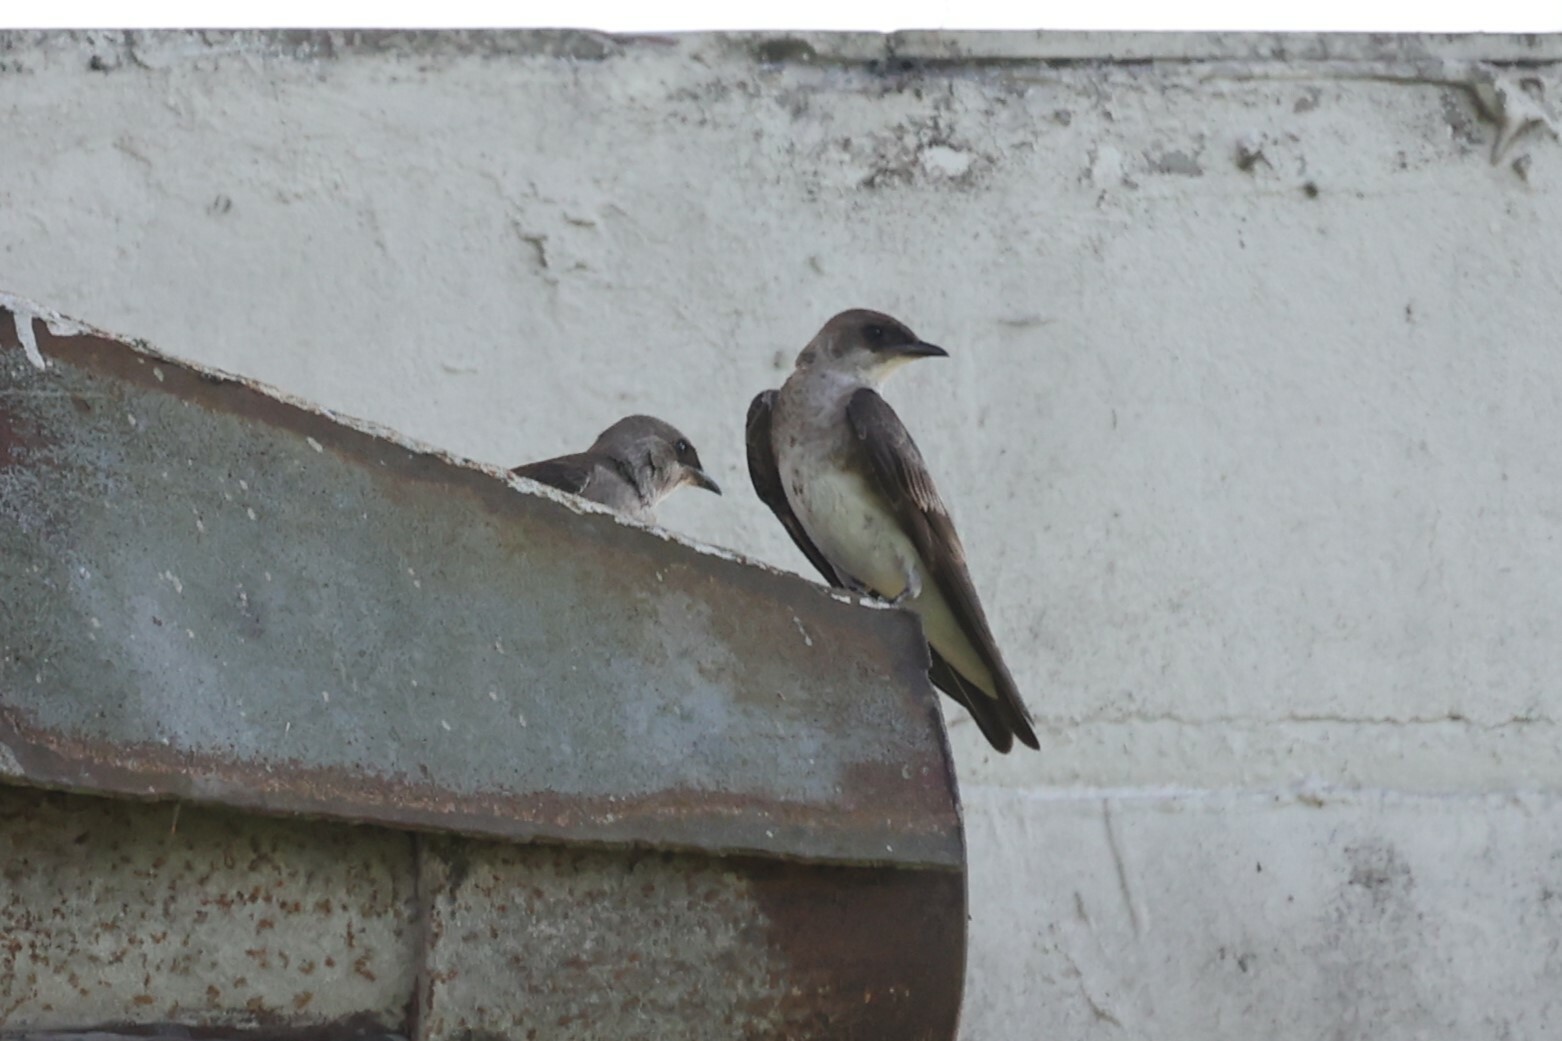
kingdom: Animalia
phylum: Chordata
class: Aves
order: Passeriformes
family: Hirundinidae
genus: Progne
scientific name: Progne tapera
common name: Brown-chested martin
